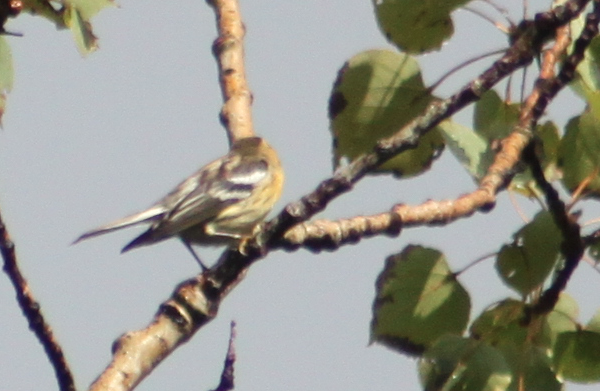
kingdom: Animalia
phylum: Chordata
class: Aves
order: Passeriformes
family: Parulidae
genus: Setophaga
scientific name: Setophaga fusca
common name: Blackburnian warbler
